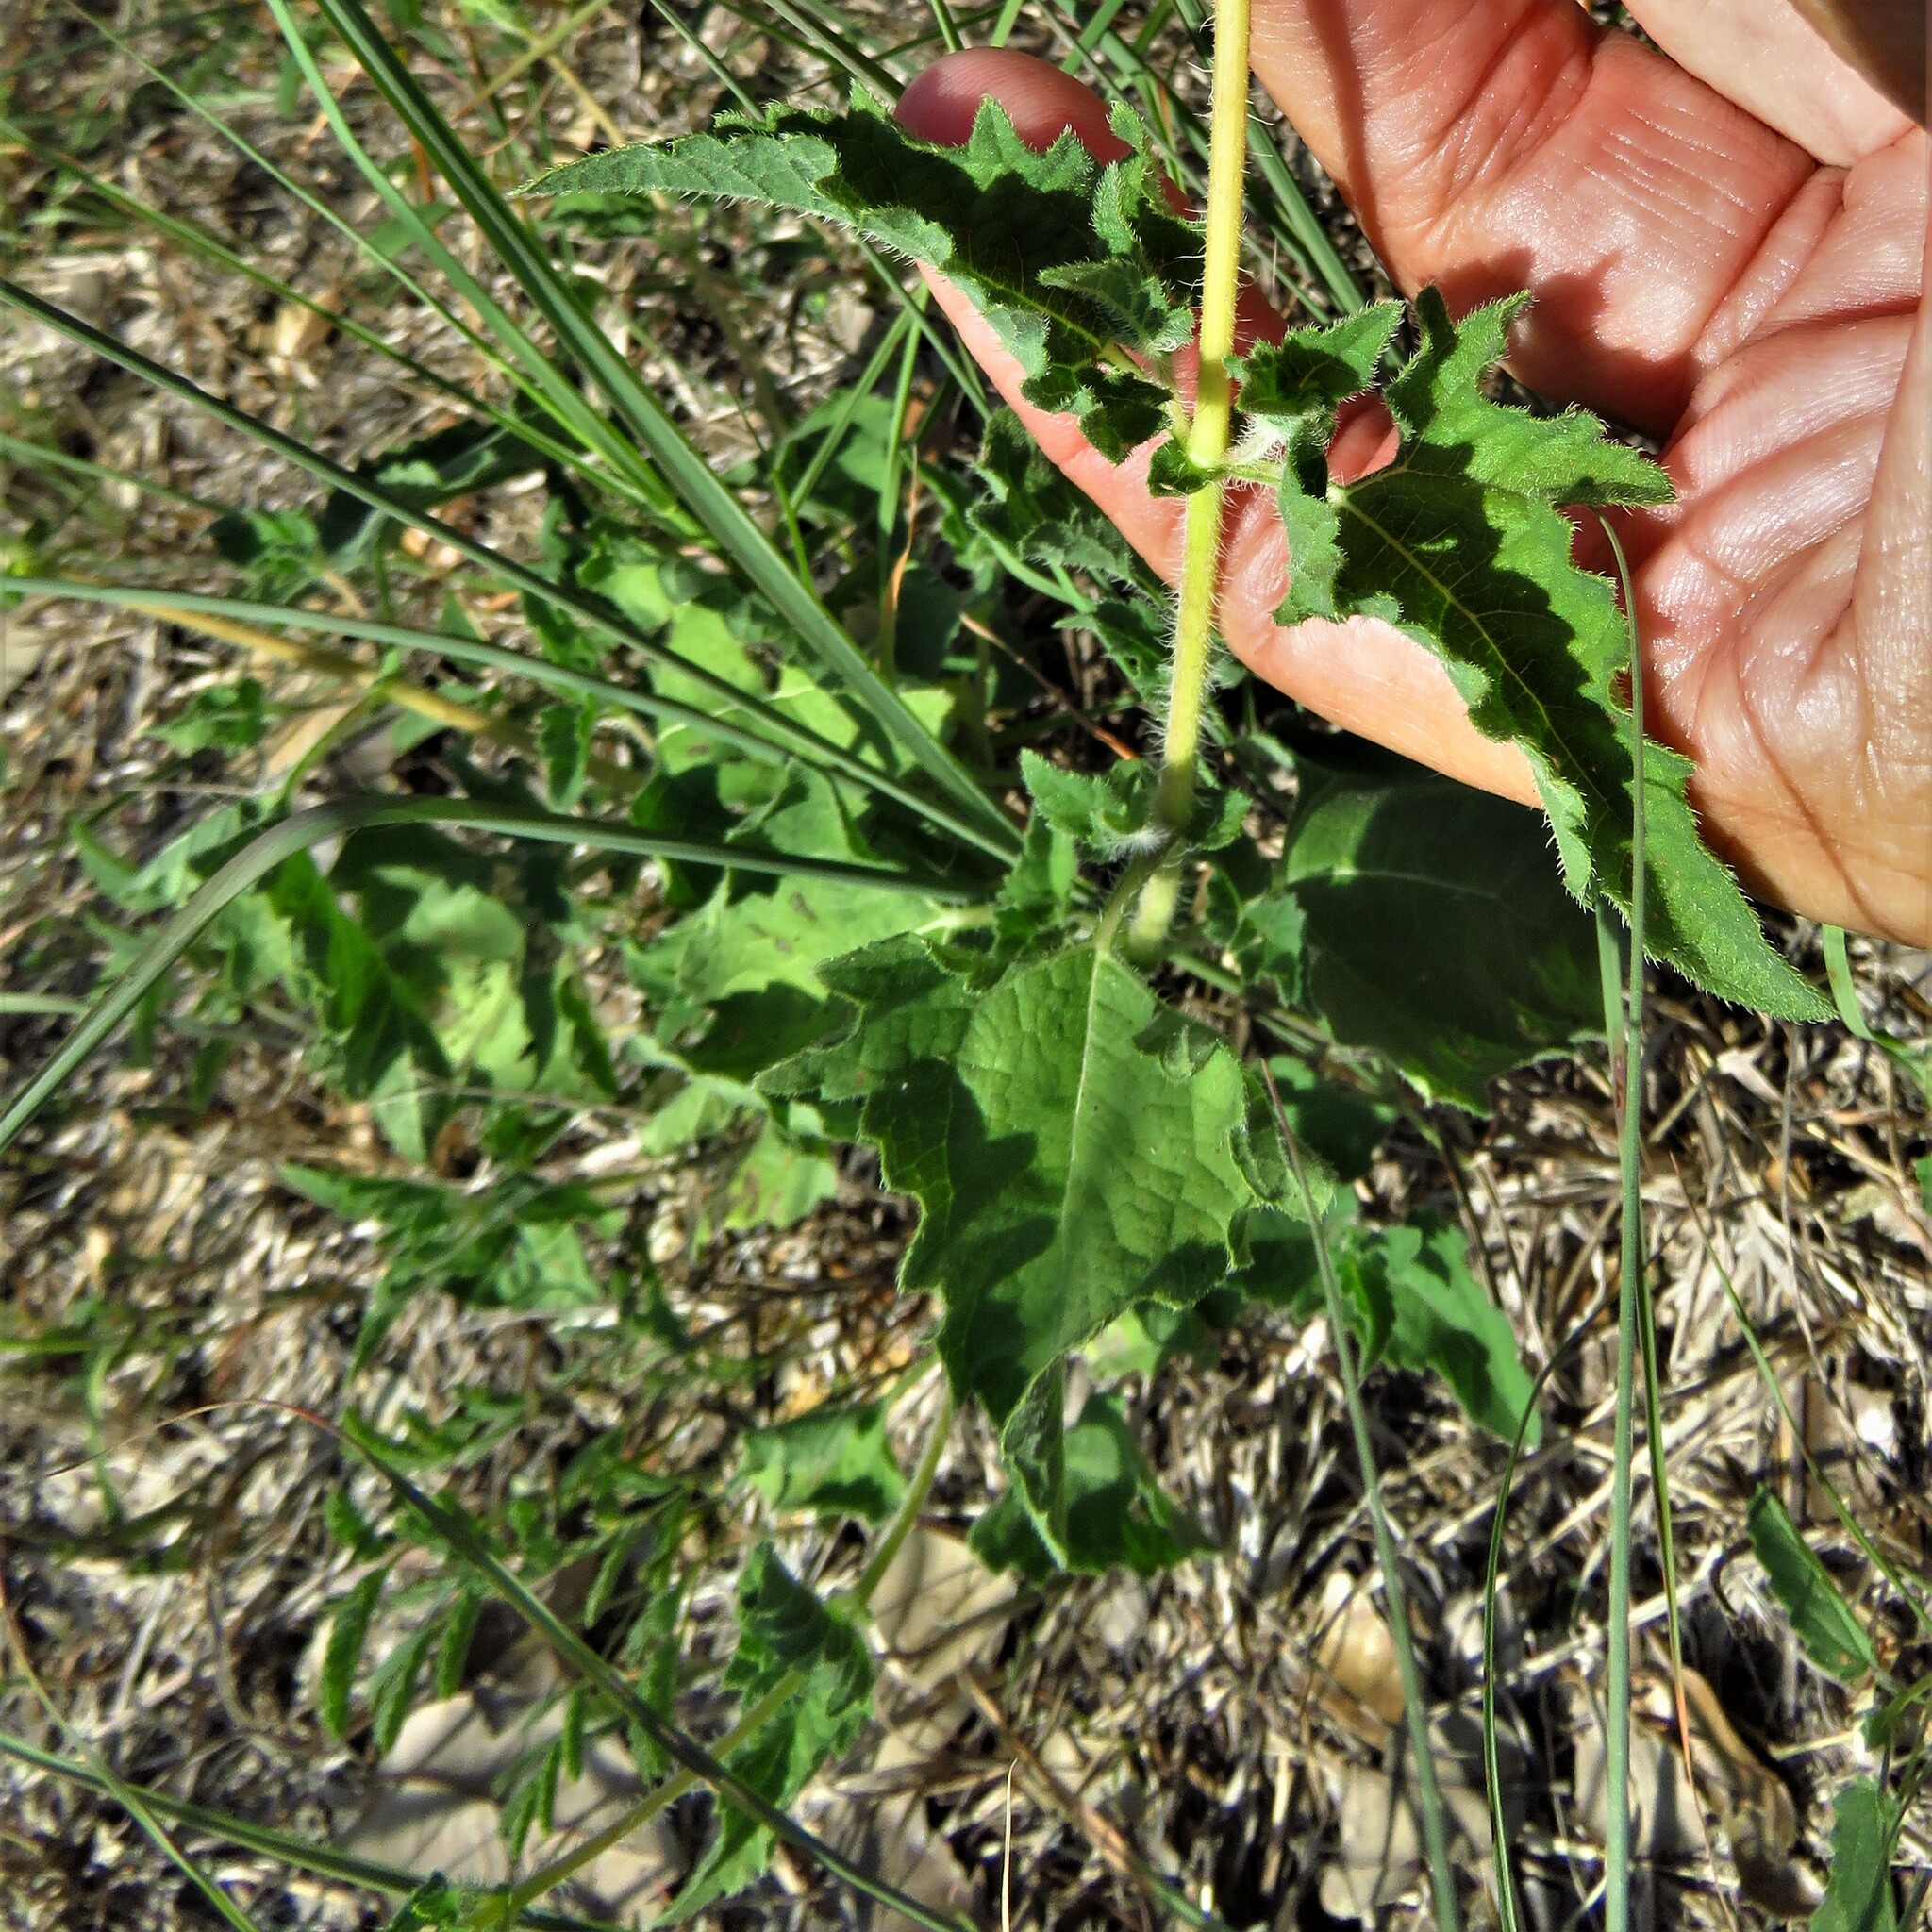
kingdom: Plantae
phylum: Tracheophyta
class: Magnoliopsida
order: Asterales
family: Asteraceae
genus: Simsia
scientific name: Simsia calva
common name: Awnless bush-sunflower
